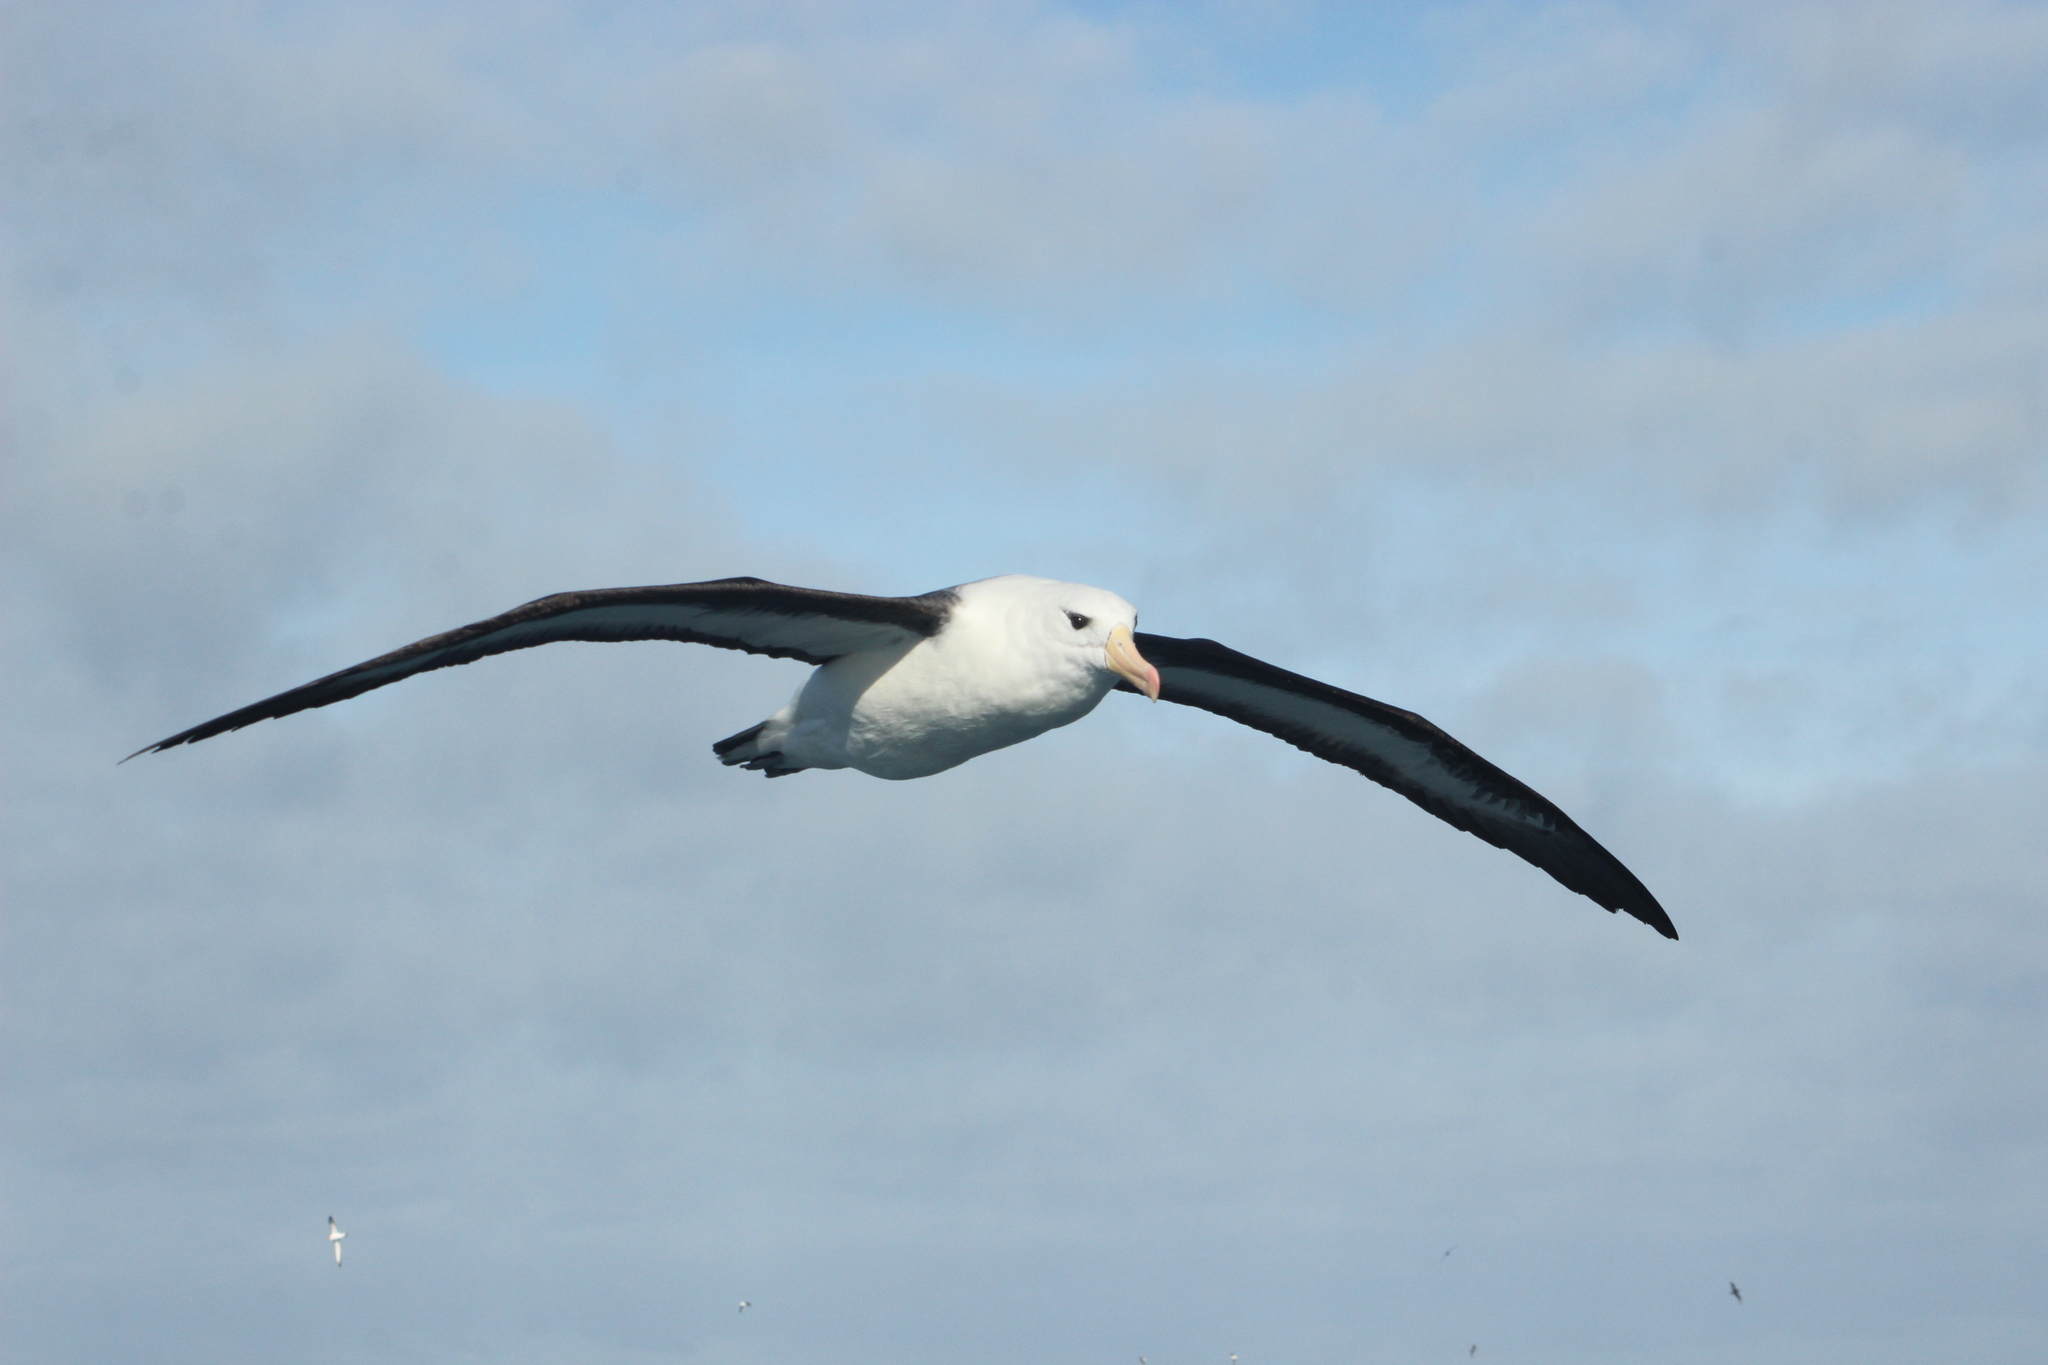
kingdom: Animalia
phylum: Chordata
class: Aves
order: Procellariiformes
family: Diomedeidae
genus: Thalassarche
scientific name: Thalassarche melanophris
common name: Black-browed albatross
